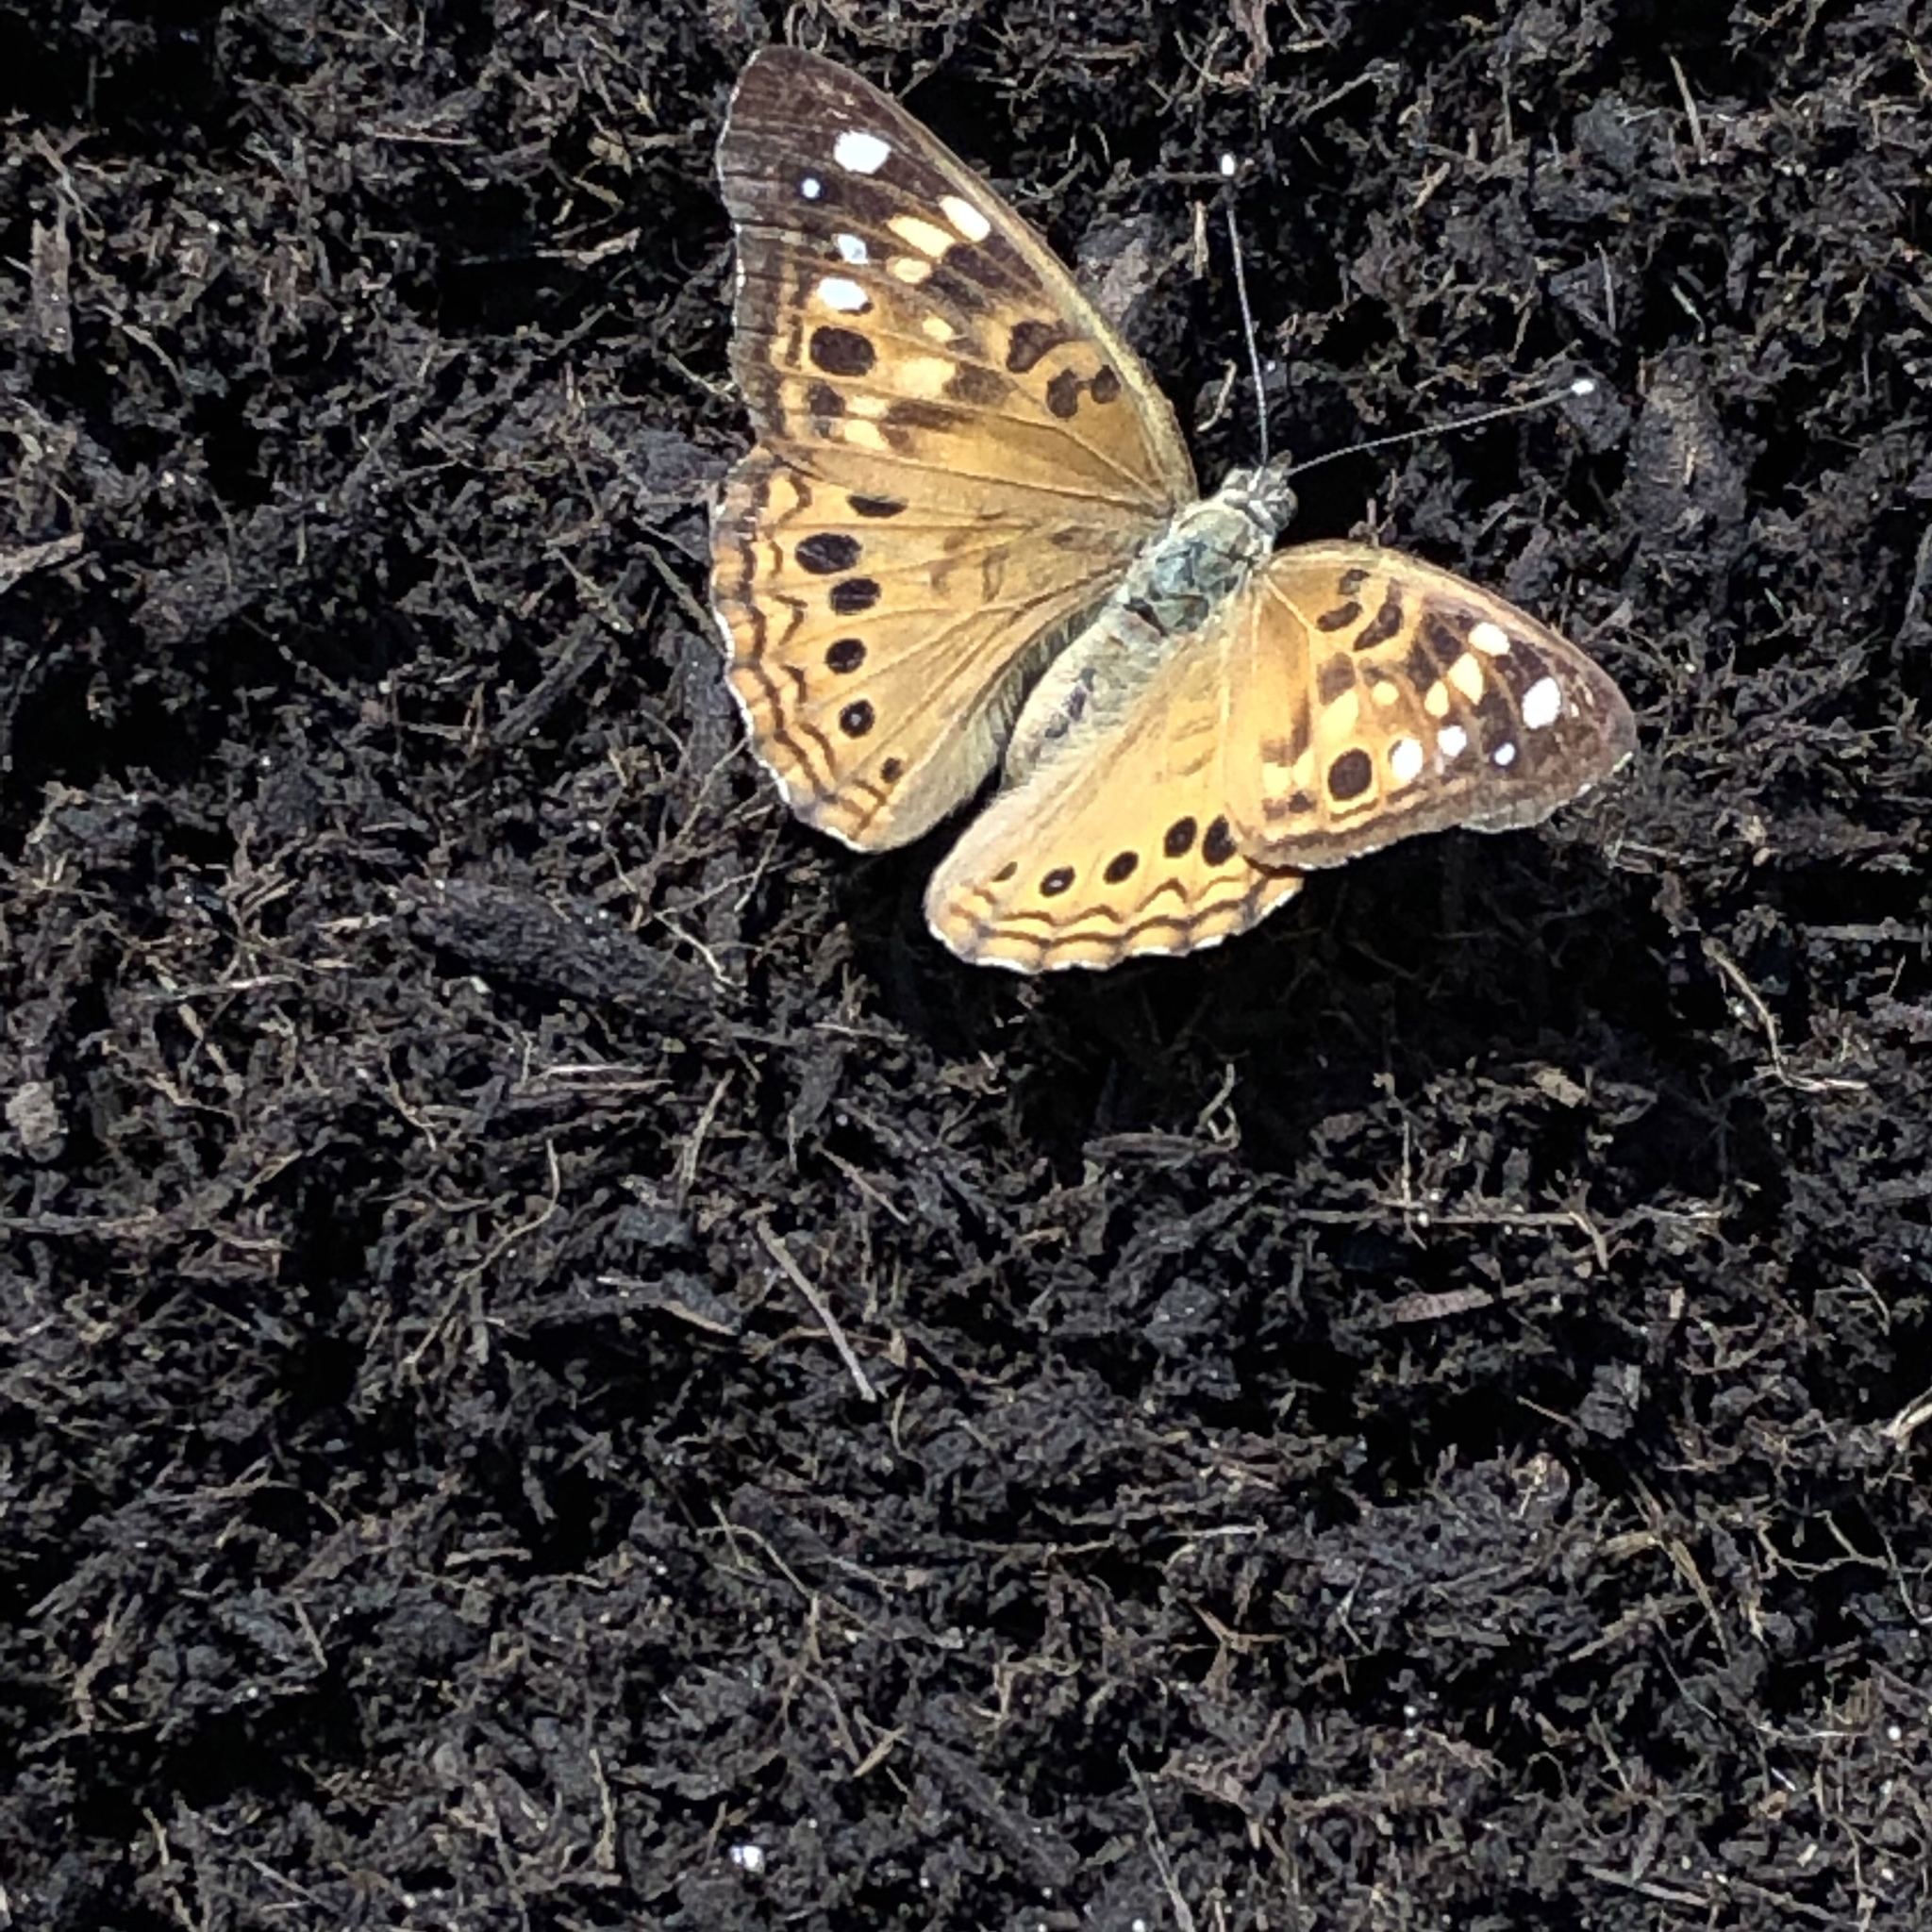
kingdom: Animalia
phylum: Arthropoda
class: Insecta
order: Lepidoptera
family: Nymphalidae
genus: Asterocampa
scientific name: Asterocampa celtis
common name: Hackberry emperor
